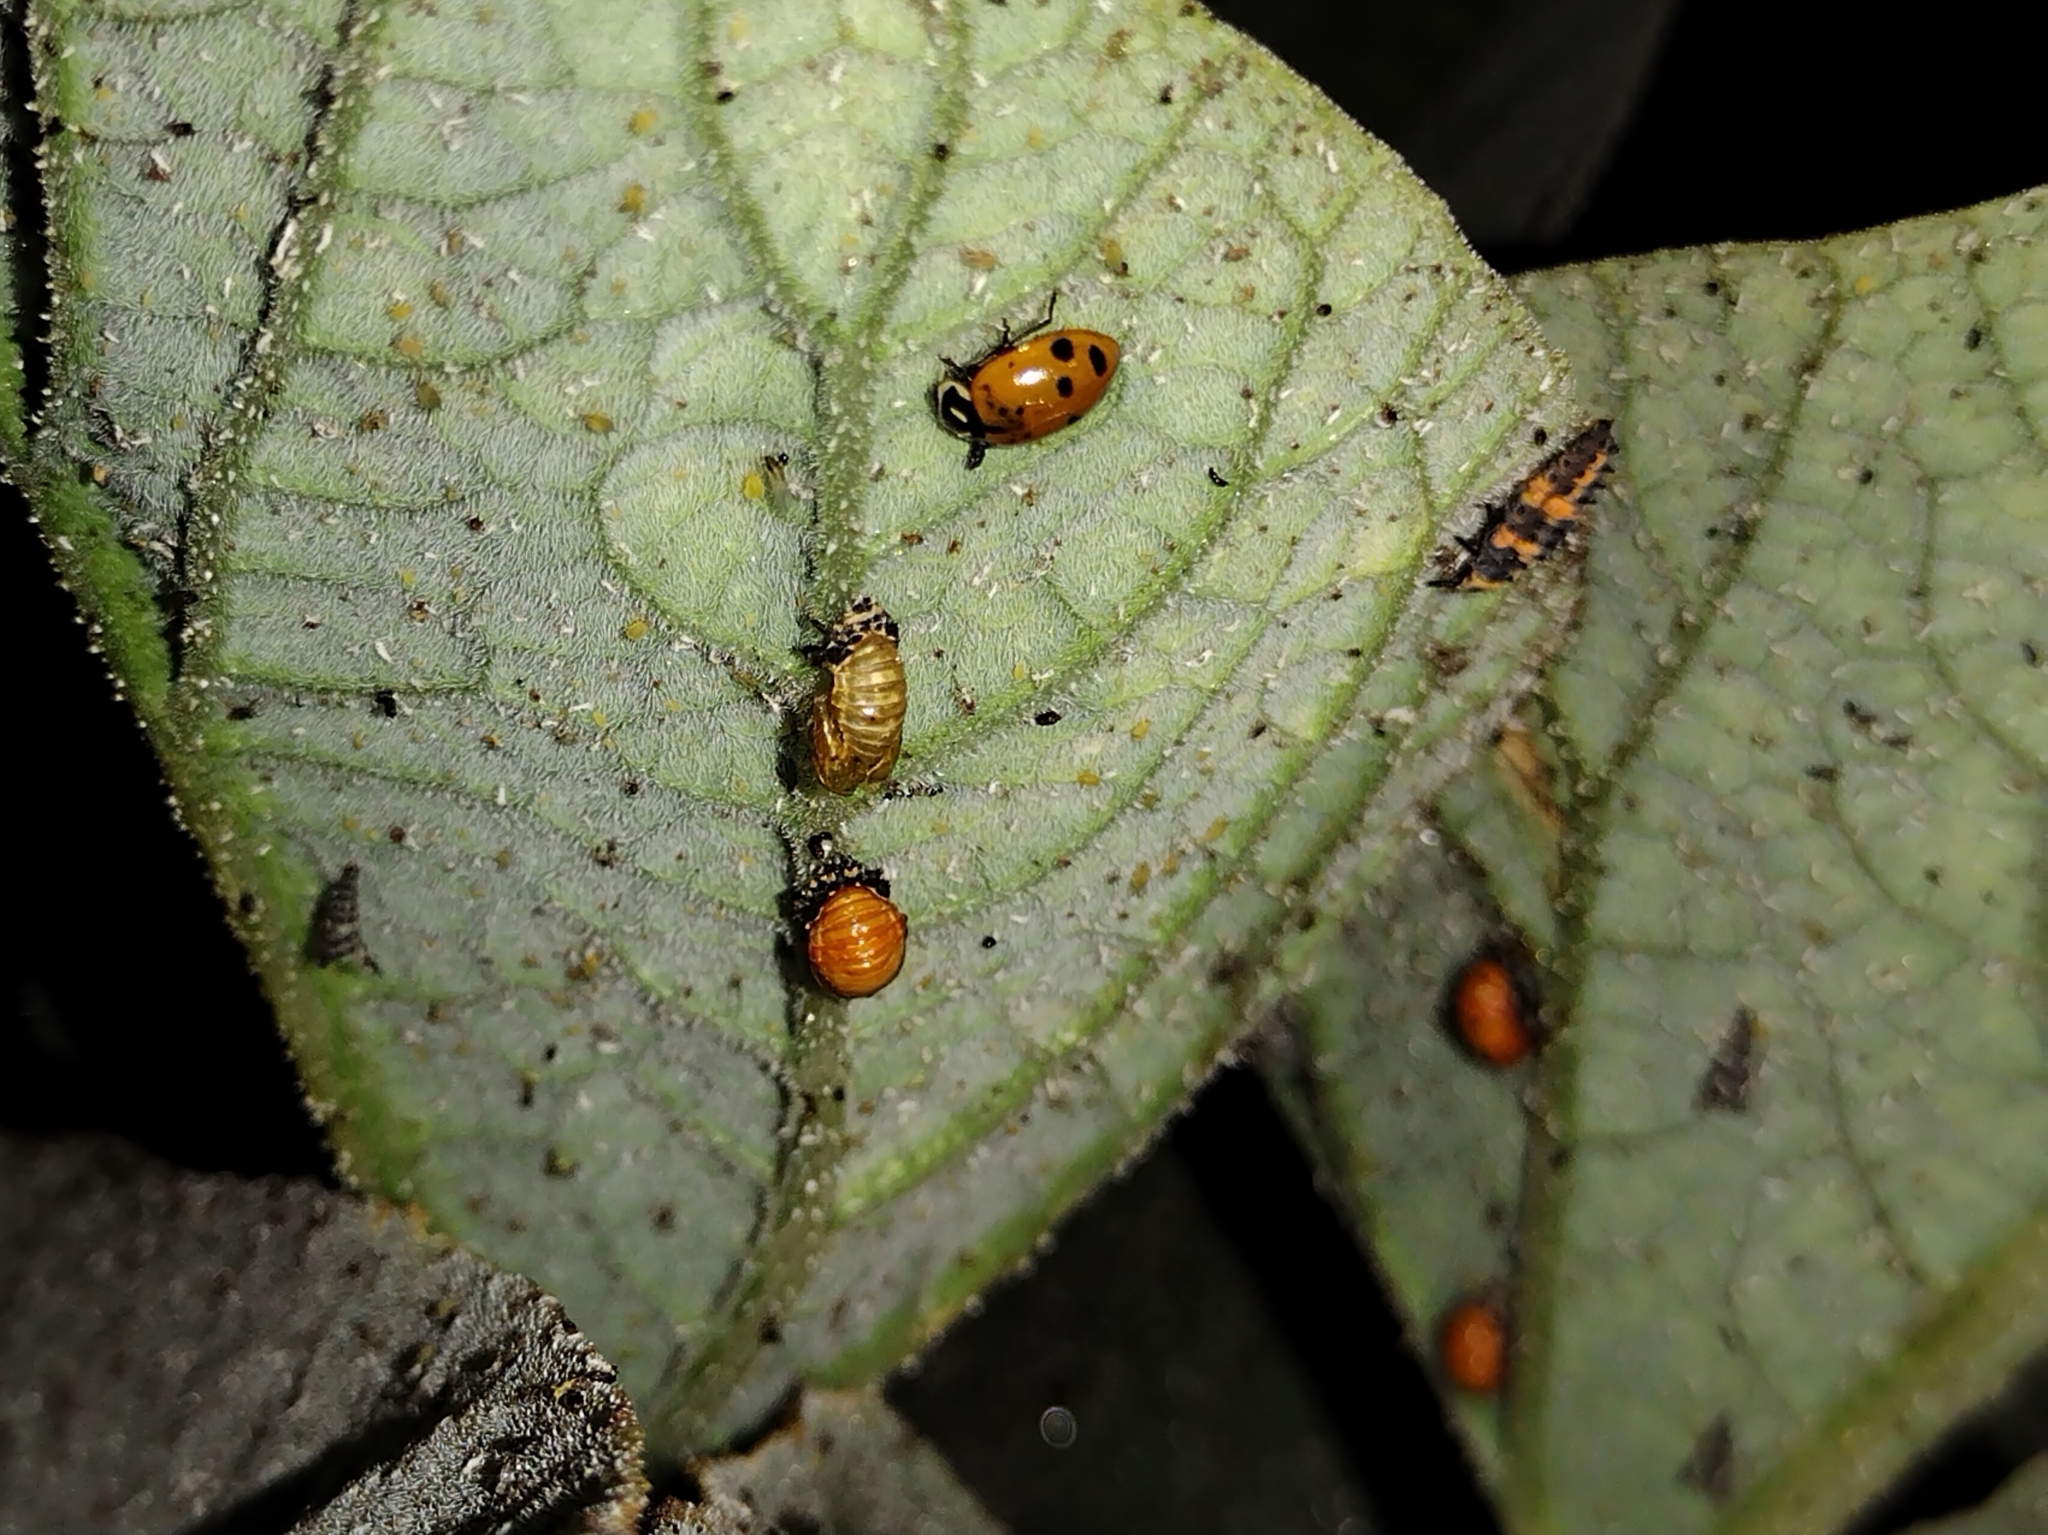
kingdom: Animalia
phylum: Arthropoda
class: Insecta
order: Coleoptera
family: Coccinellidae
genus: Hippodamia
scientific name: Hippodamia convergens
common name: Convergent lady beetle
